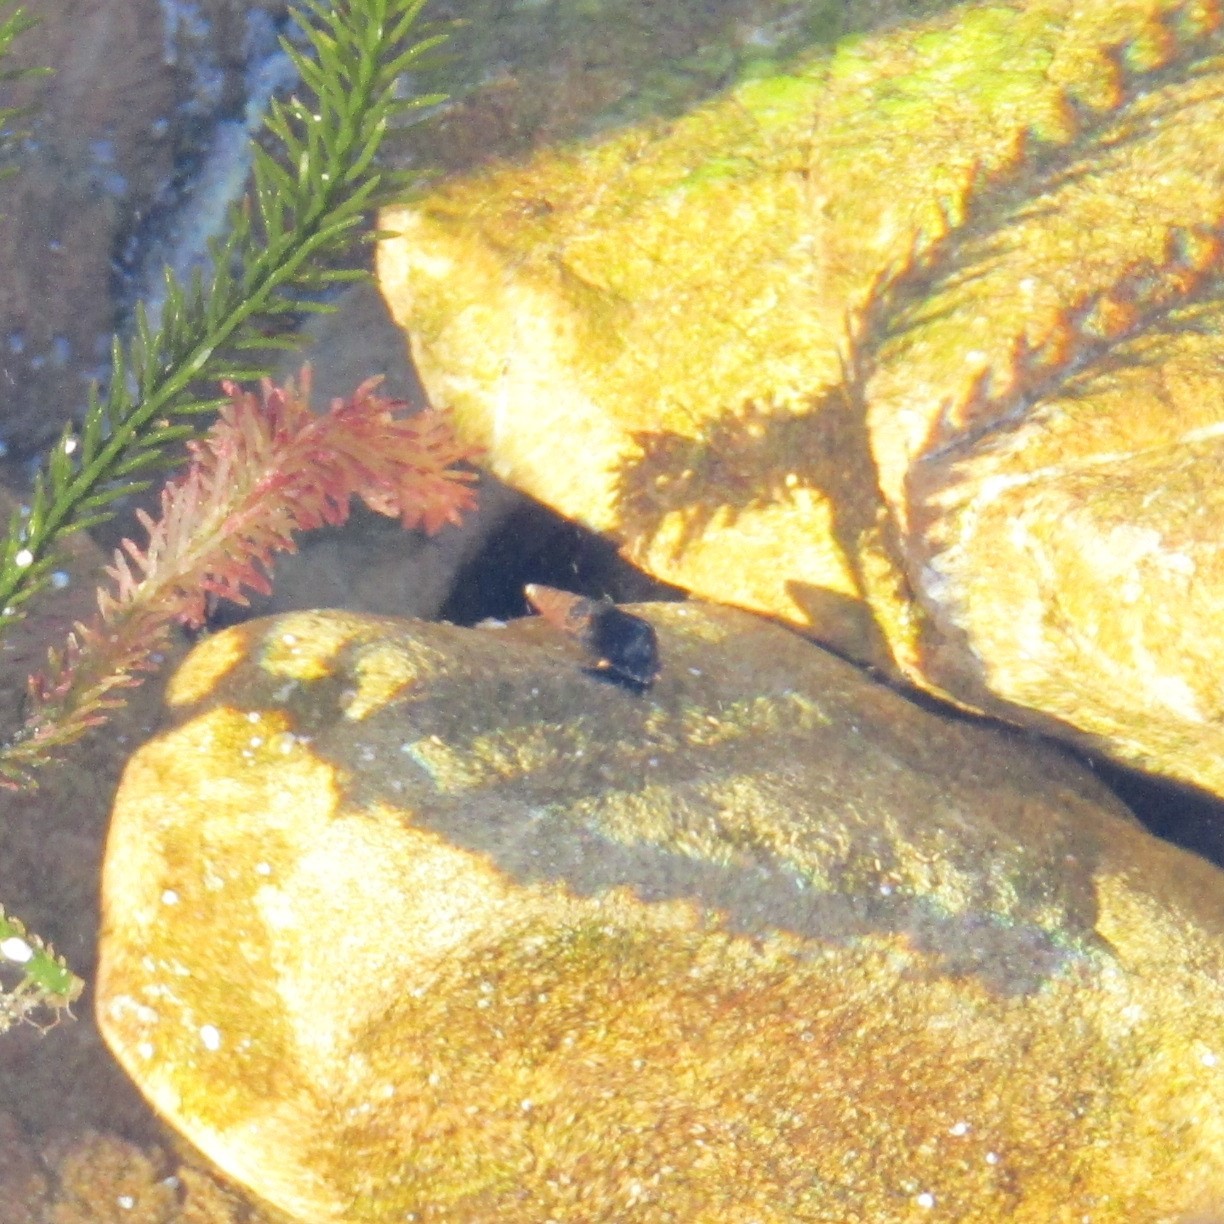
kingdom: Animalia
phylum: Mollusca
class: Gastropoda
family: Batillariidae
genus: Zeacumantus
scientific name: Zeacumantus subcarinatus
